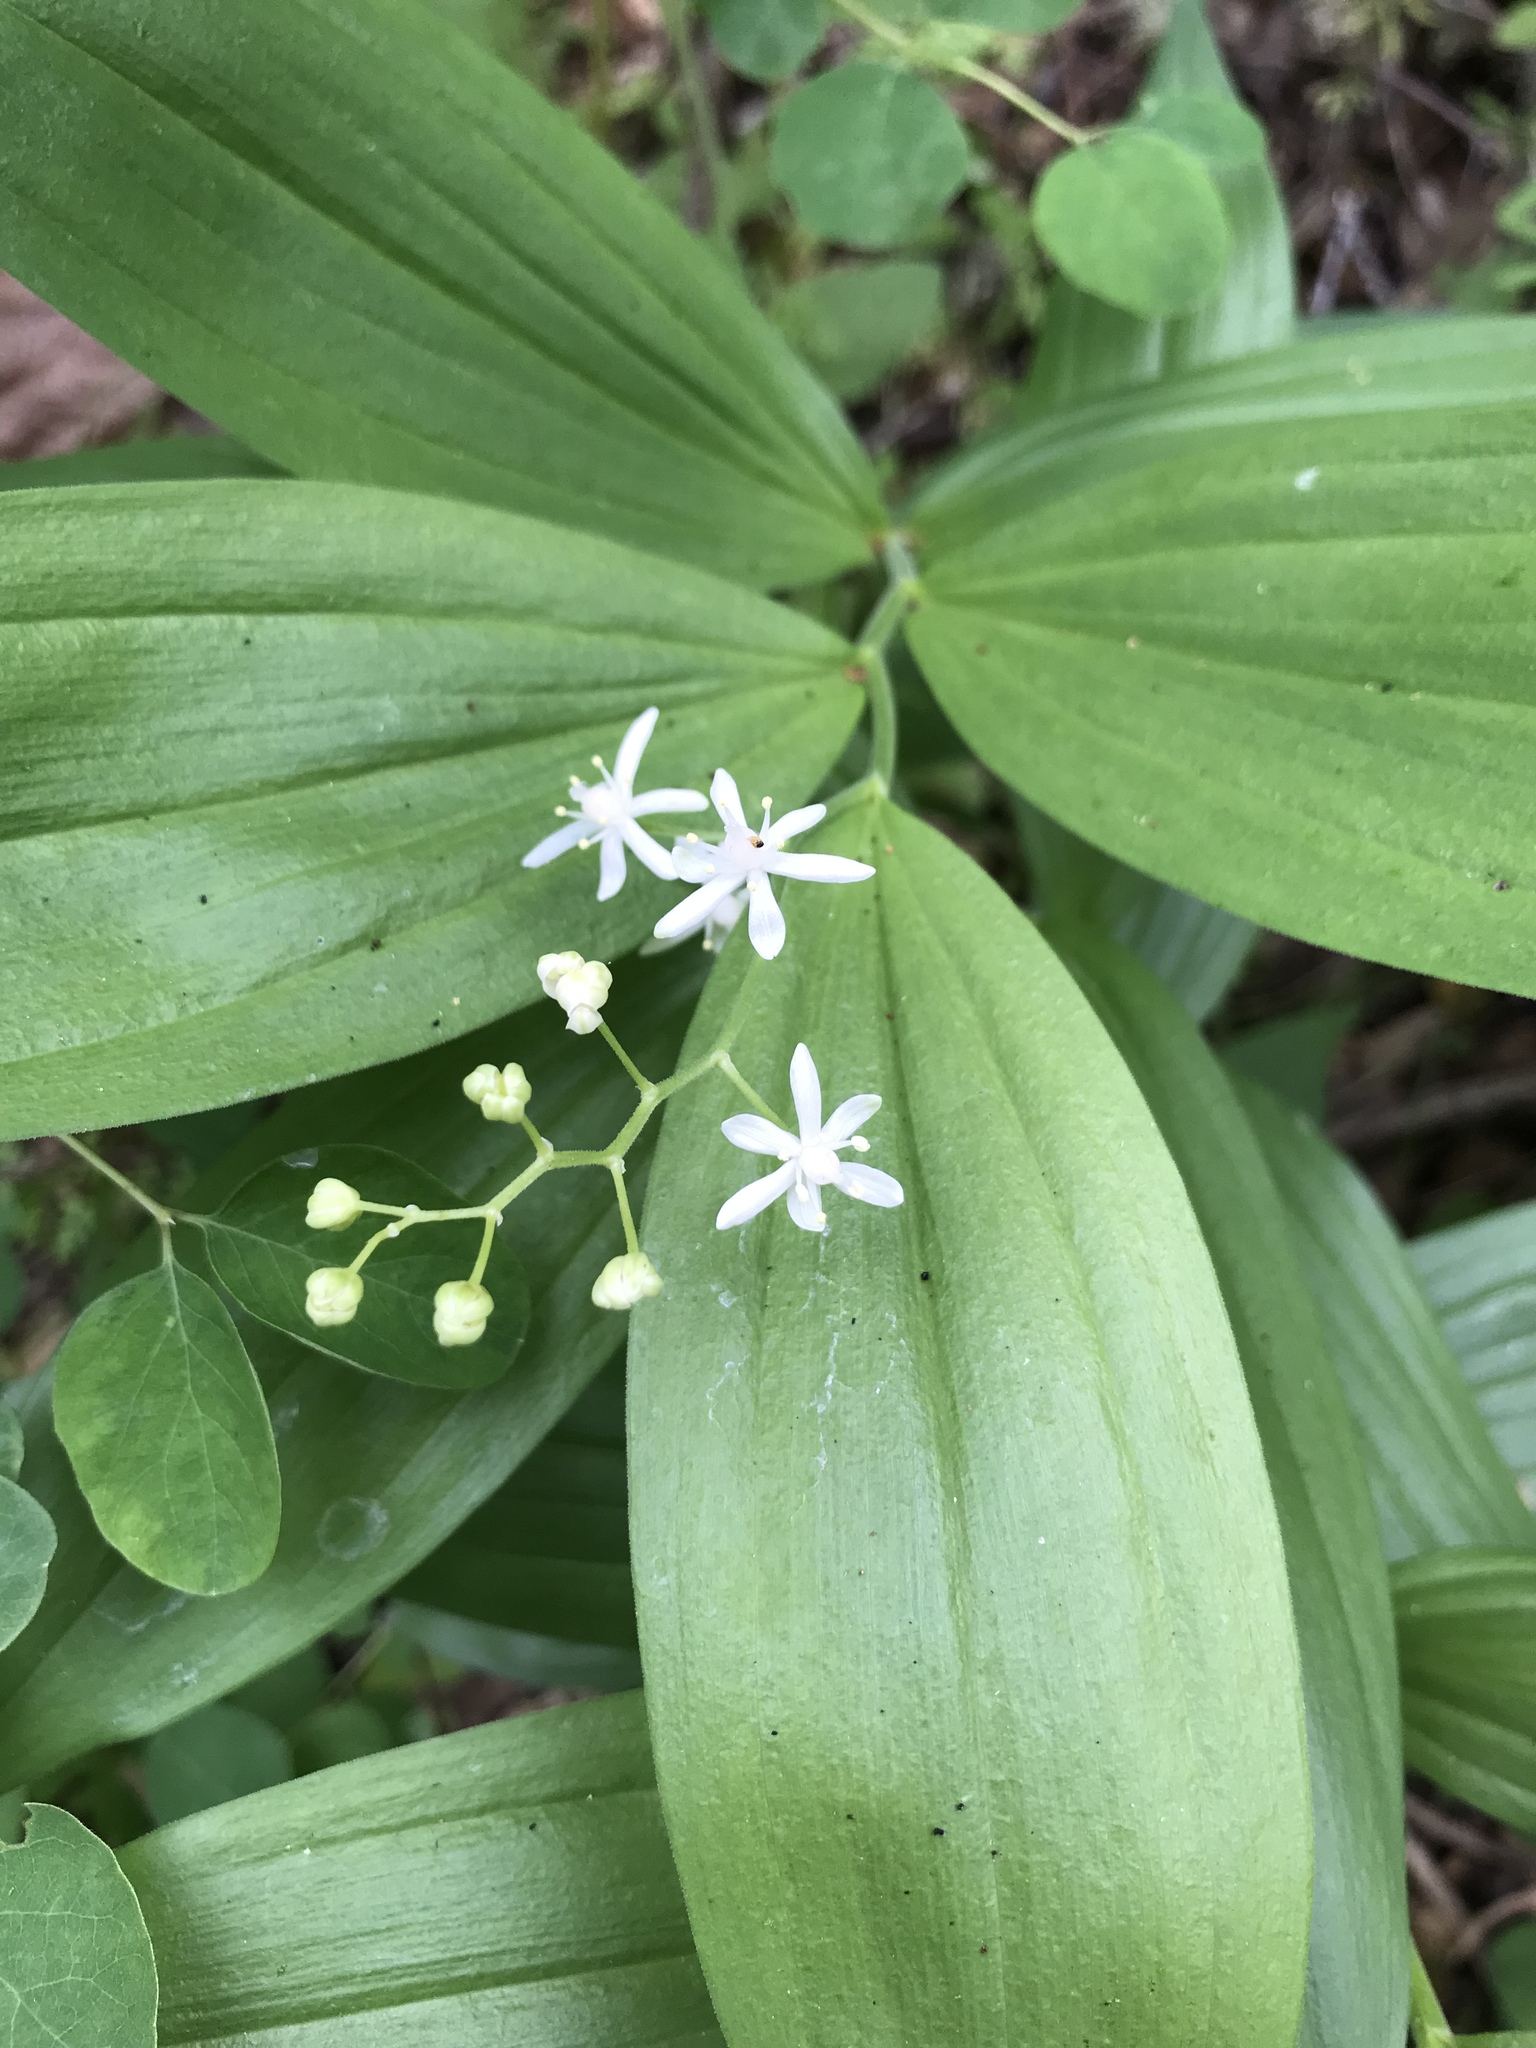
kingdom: Plantae
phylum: Tracheophyta
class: Liliopsida
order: Asparagales
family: Asparagaceae
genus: Maianthemum
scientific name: Maianthemum stellatum
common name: Little false solomon's seal
